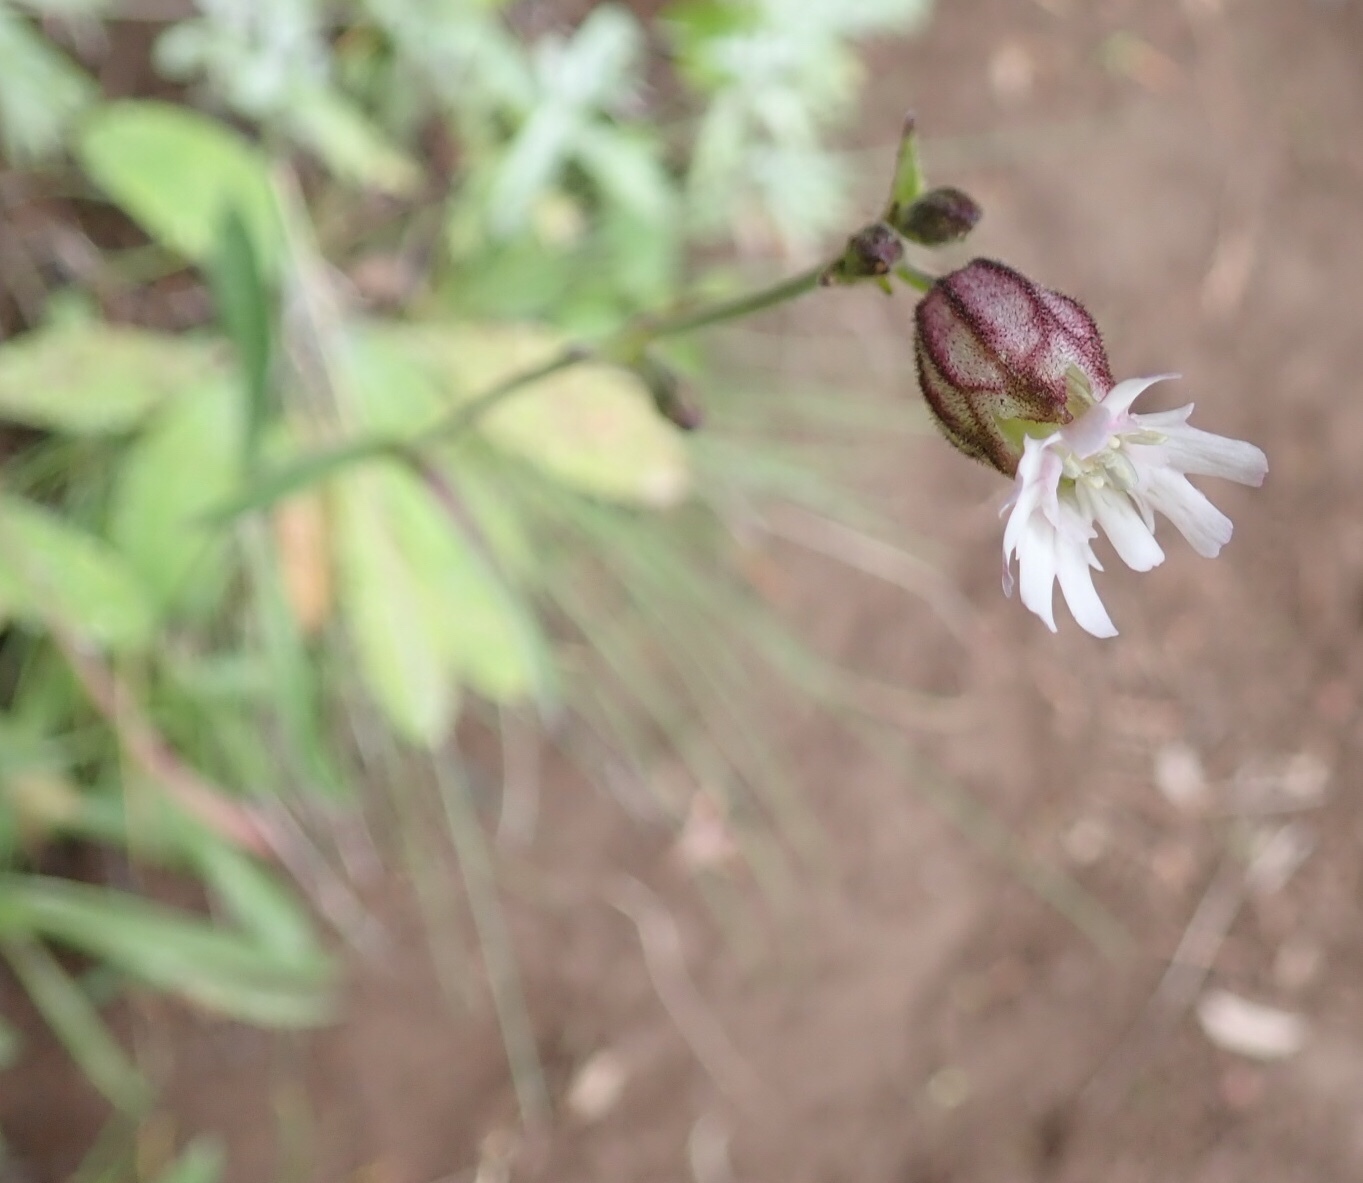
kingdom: Plantae
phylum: Tracheophyta
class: Magnoliopsida
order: Caryophyllales
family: Caryophyllaceae
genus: Silene
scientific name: Silene parryi
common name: Parry's campion
